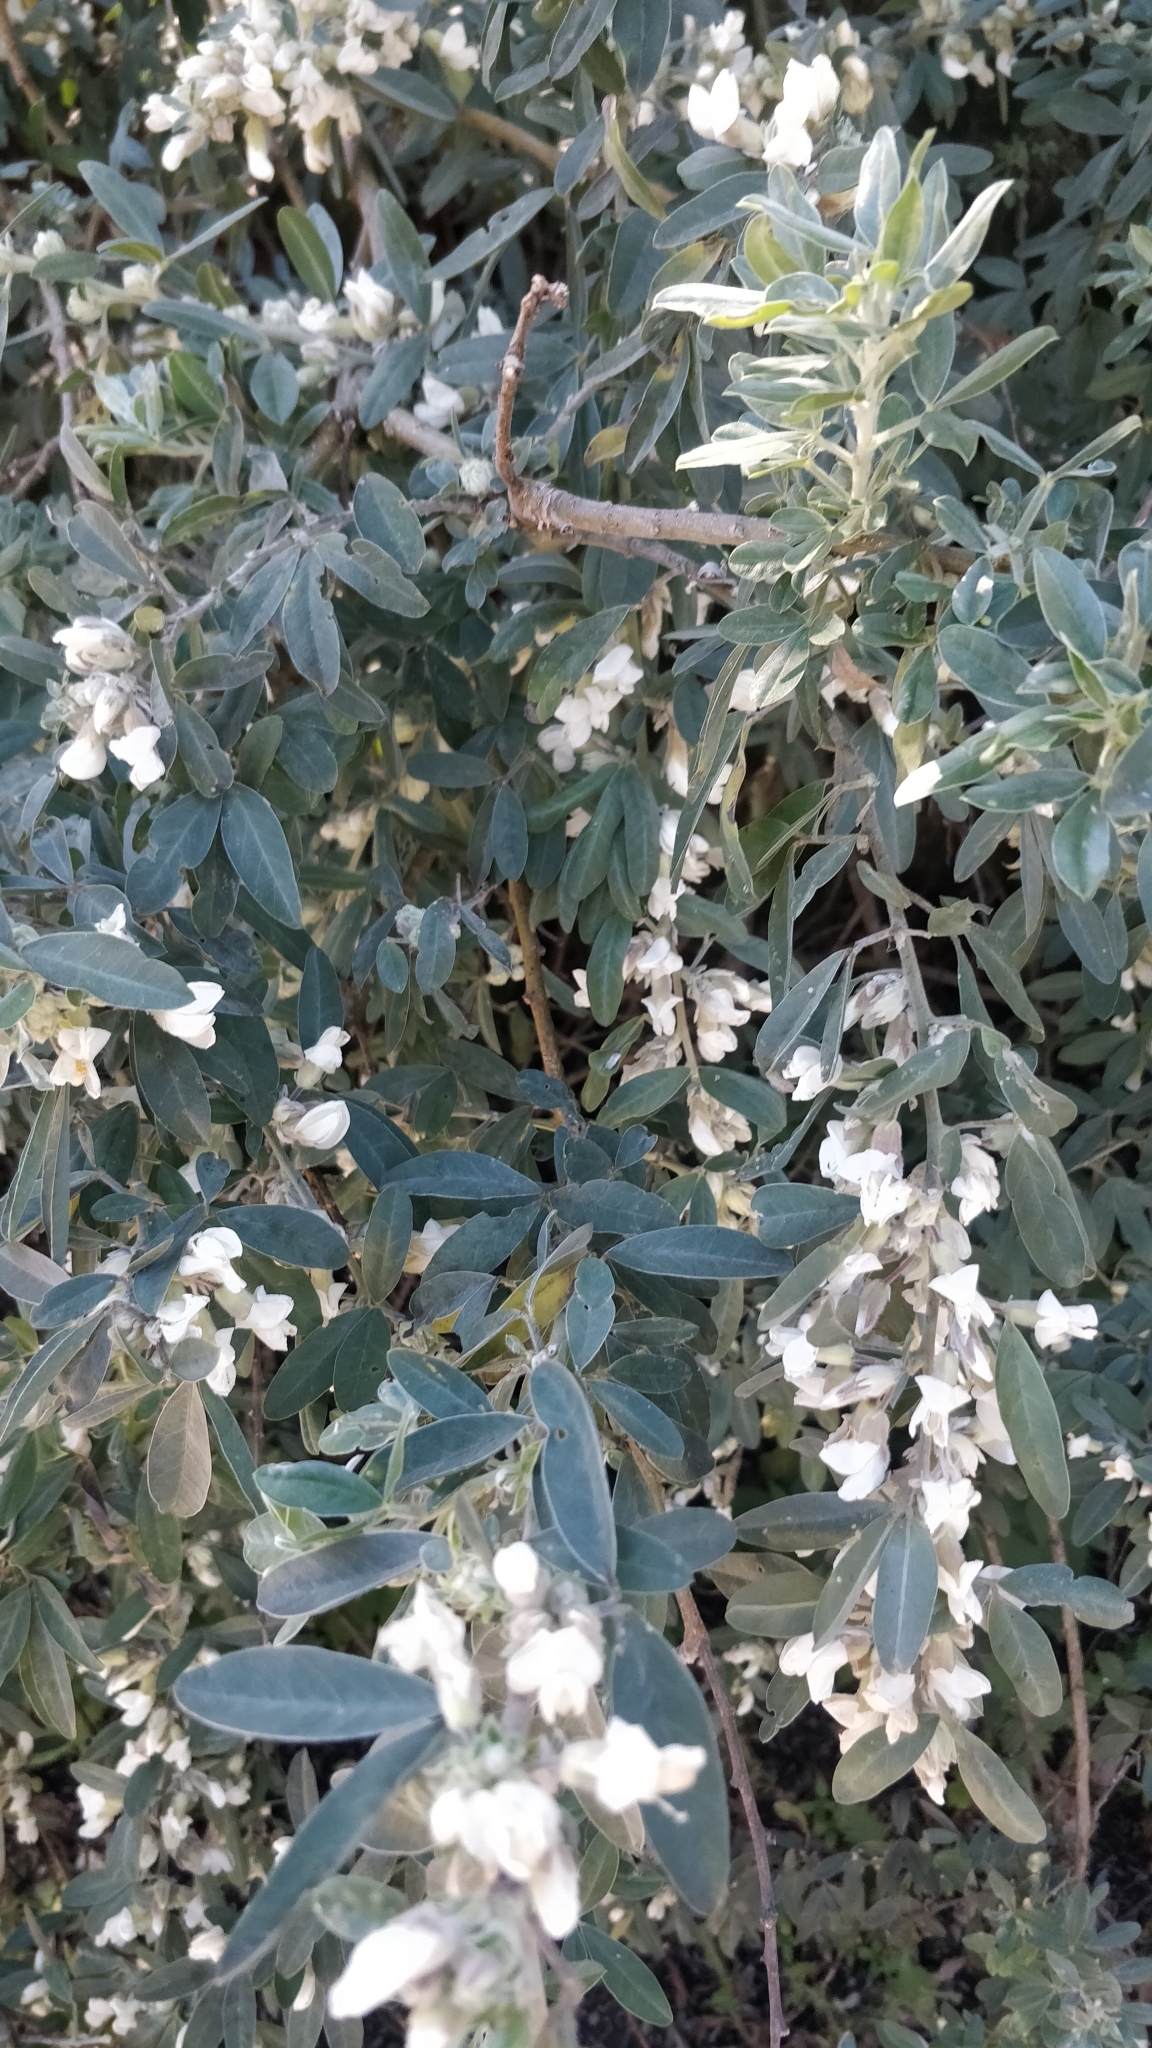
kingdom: Plantae
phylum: Tracheophyta
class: Magnoliopsida
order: Fabales
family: Fabaceae
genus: Chamaecytisus
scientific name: Chamaecytisus prolifer
